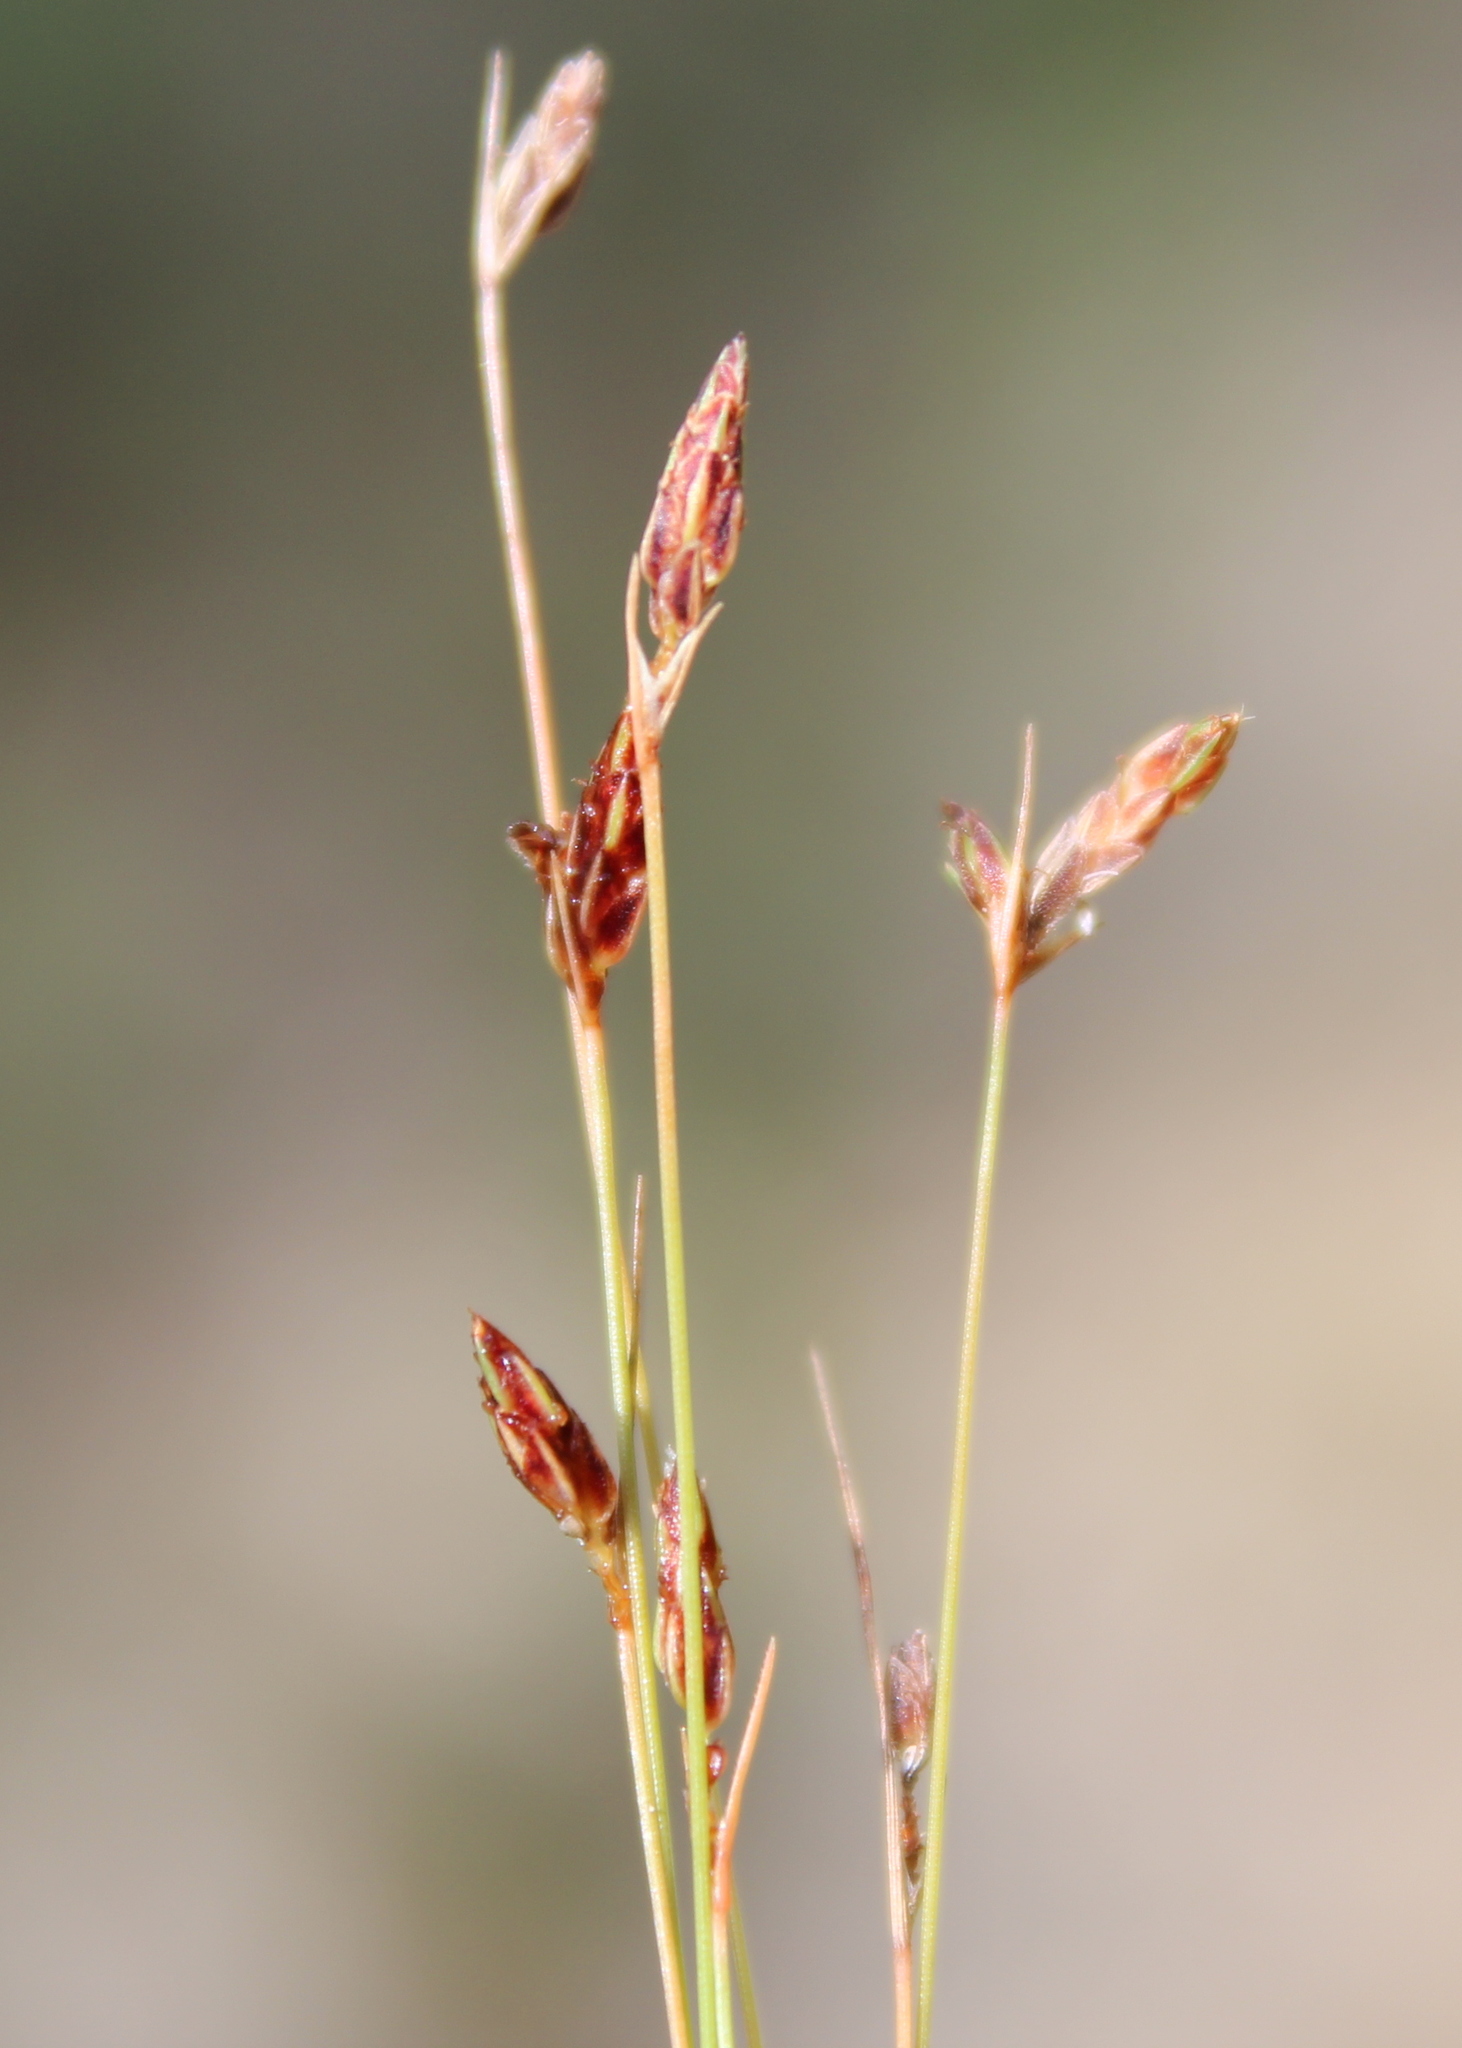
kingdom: Plantae
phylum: Tracheophyta
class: Liliopsida
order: Poales
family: Cyperaceae
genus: Bulbostylis
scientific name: Bulbostylis capillaris
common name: Densetuft hairsedge
